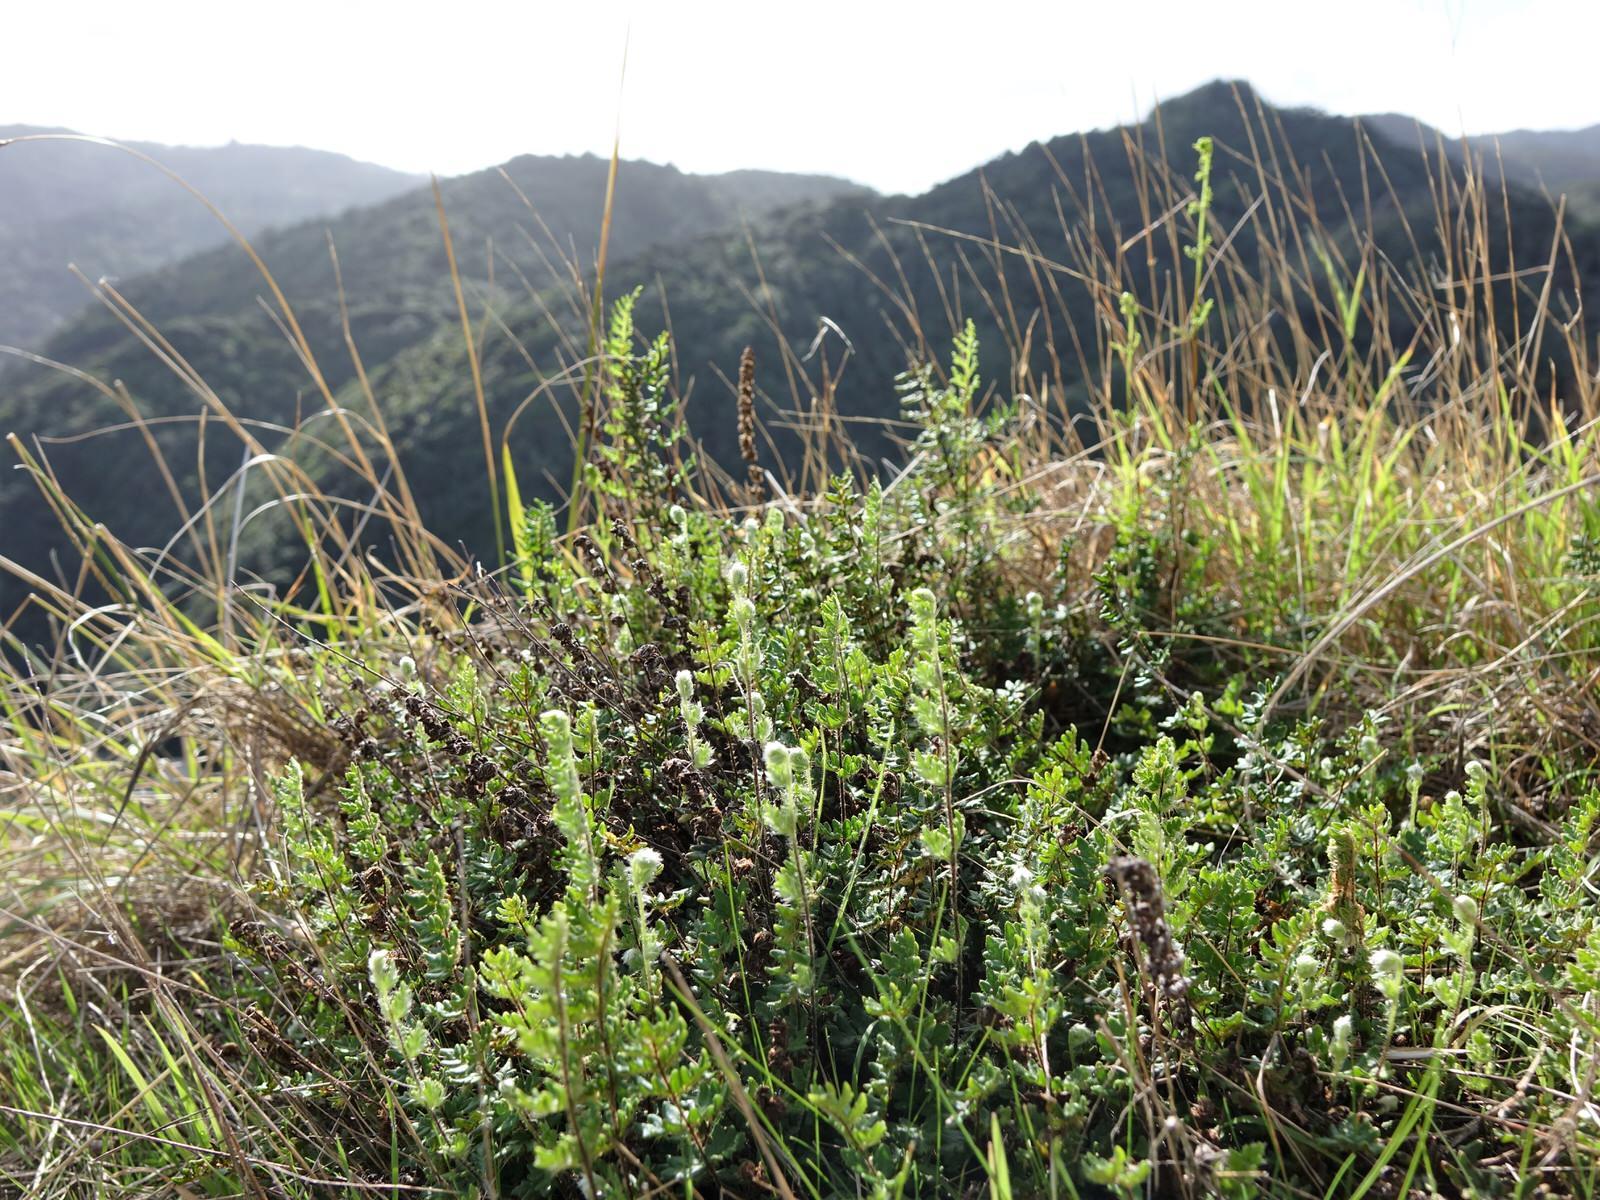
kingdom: Plantae
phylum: Tracheophyta
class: Polypodiopsida
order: Polypodiales
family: Pteridaceae
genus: Cheilanthes
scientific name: Cheilanthes distans
